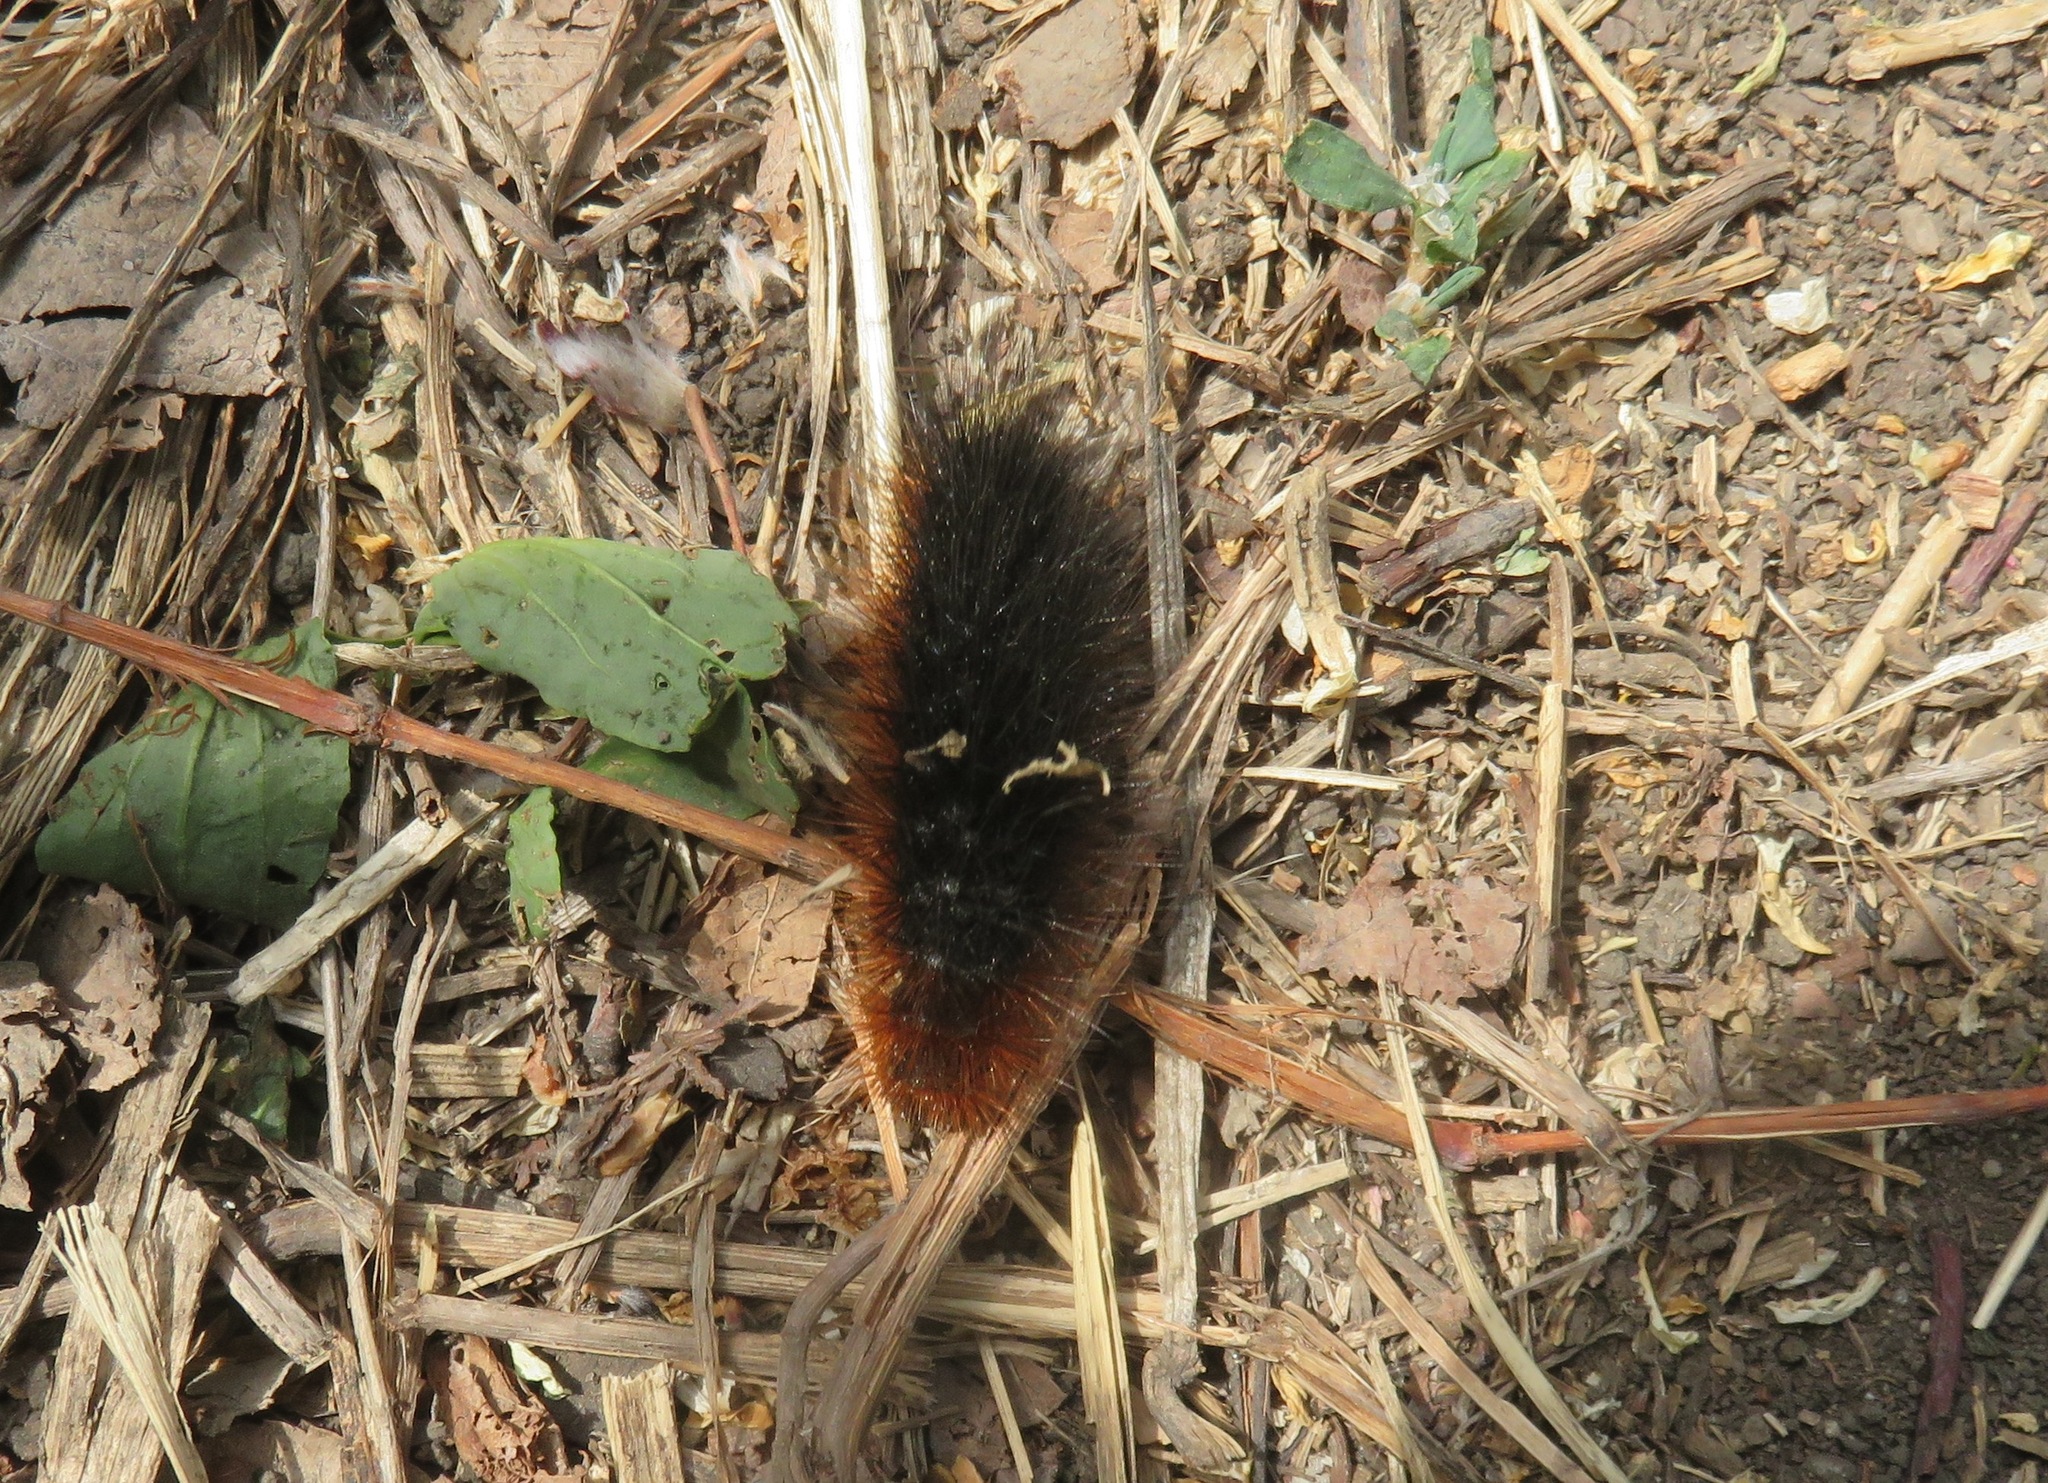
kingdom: Animalia
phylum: Arthropoda
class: Insecta
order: Lepidoptera
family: Erebidae
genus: Arctia
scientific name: Arctia caja
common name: Garden tiger
